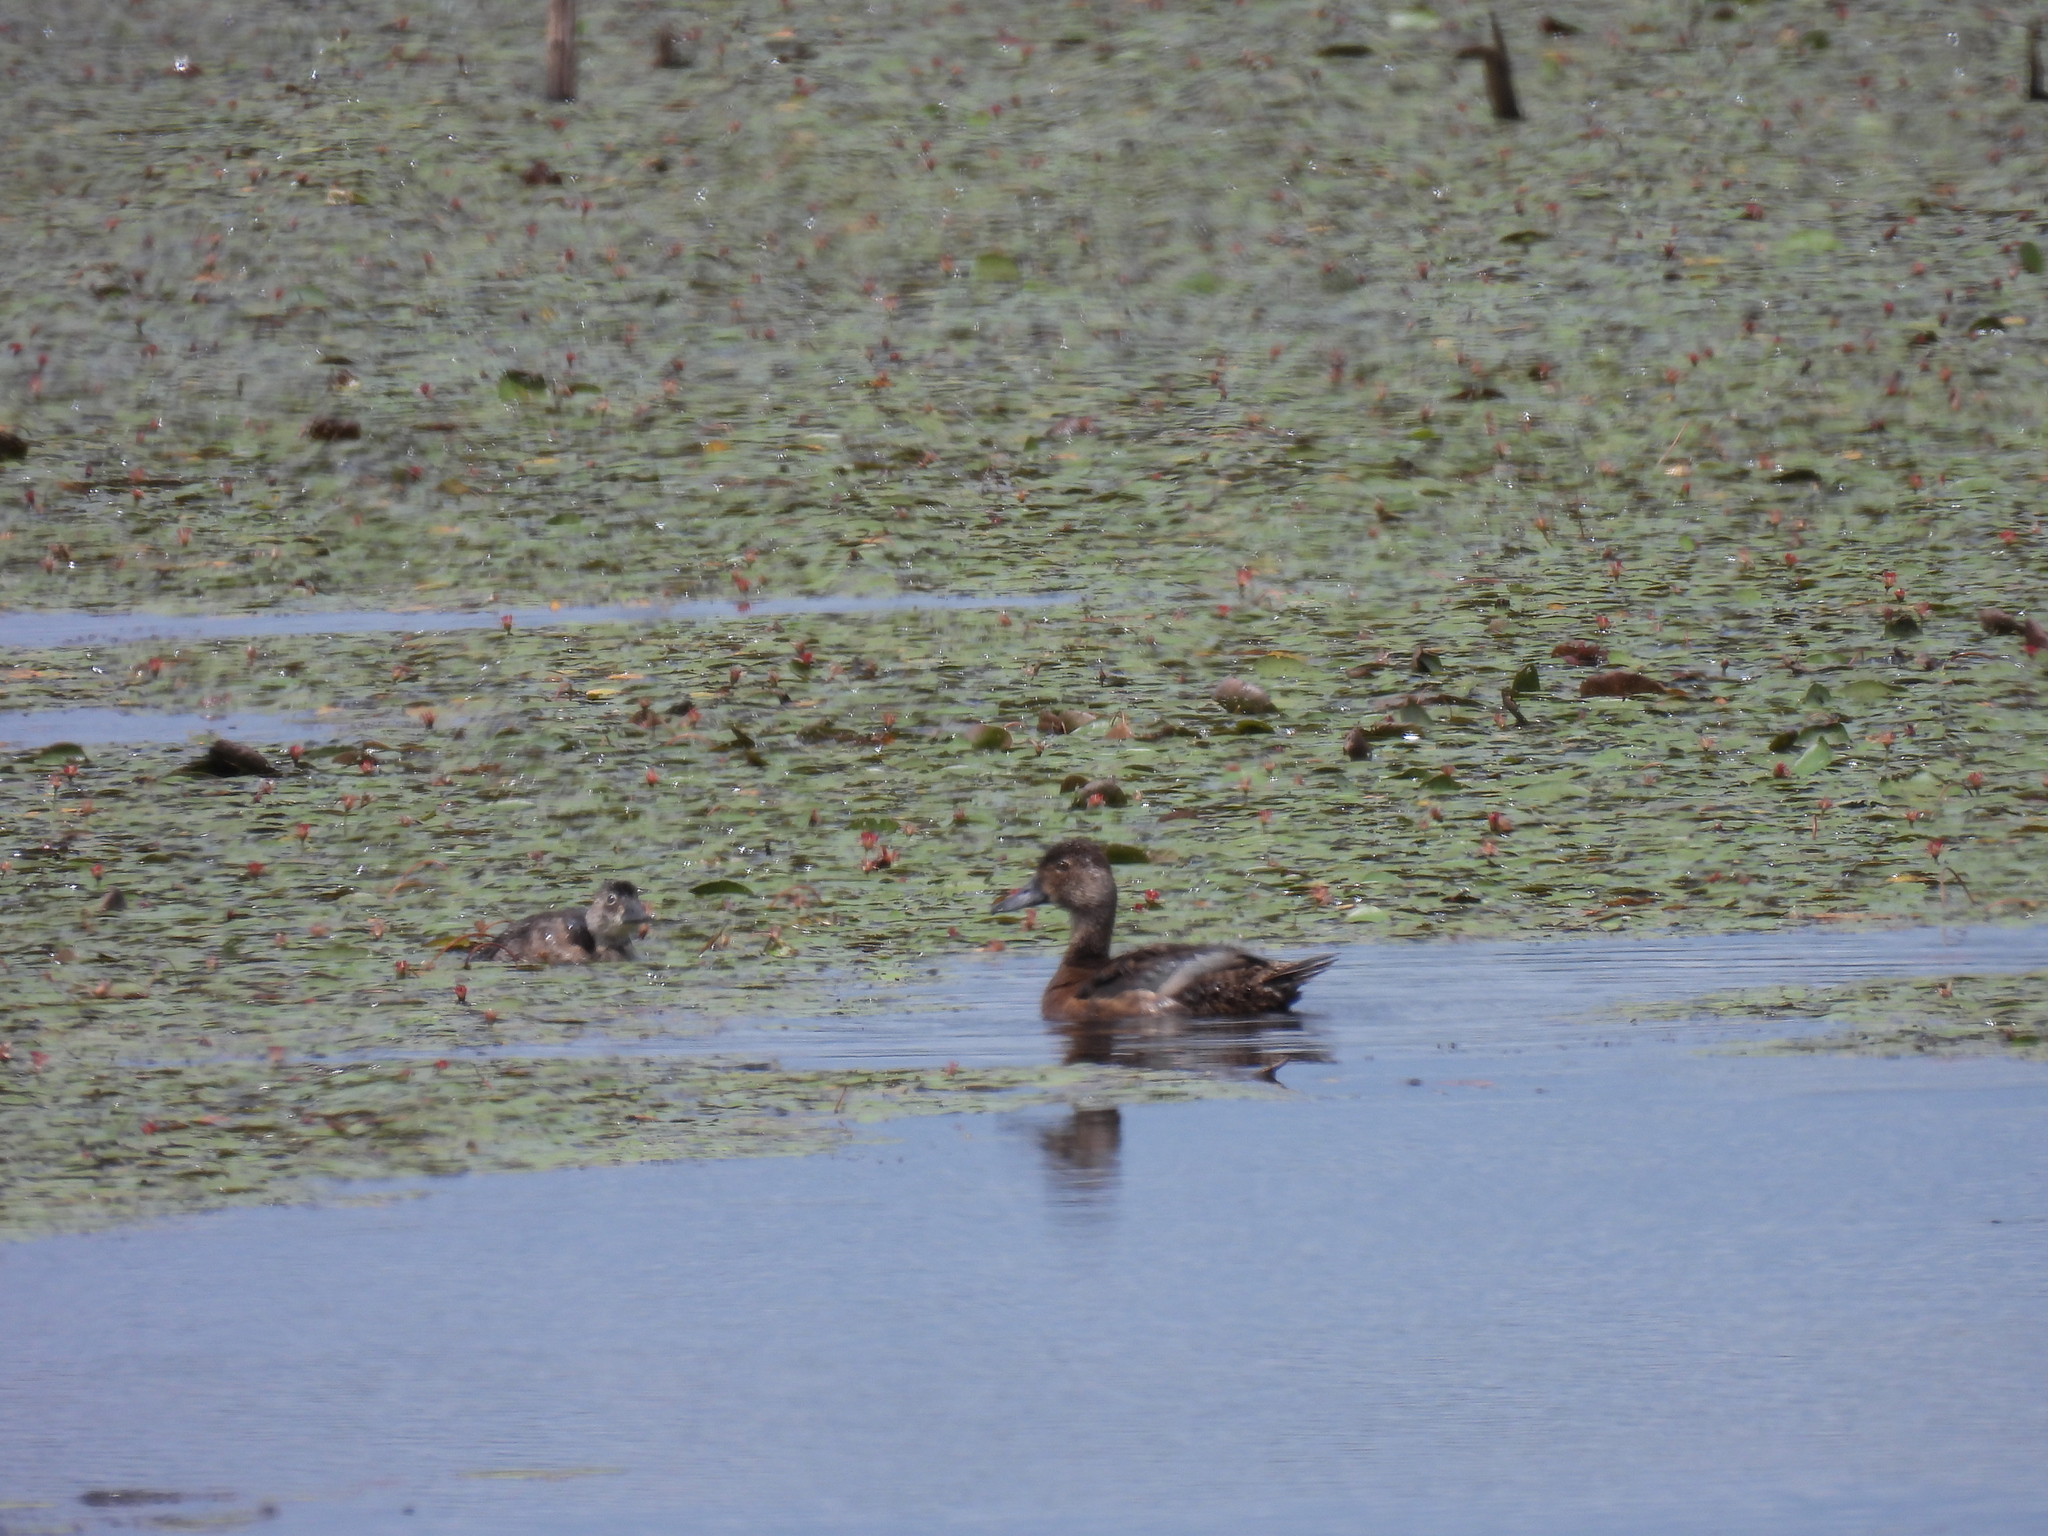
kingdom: Animalia
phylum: Chordata
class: Aves
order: Anseriformes
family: Anatidae
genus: Aythya
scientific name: Aythya collaris
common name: Ring-necked duck
